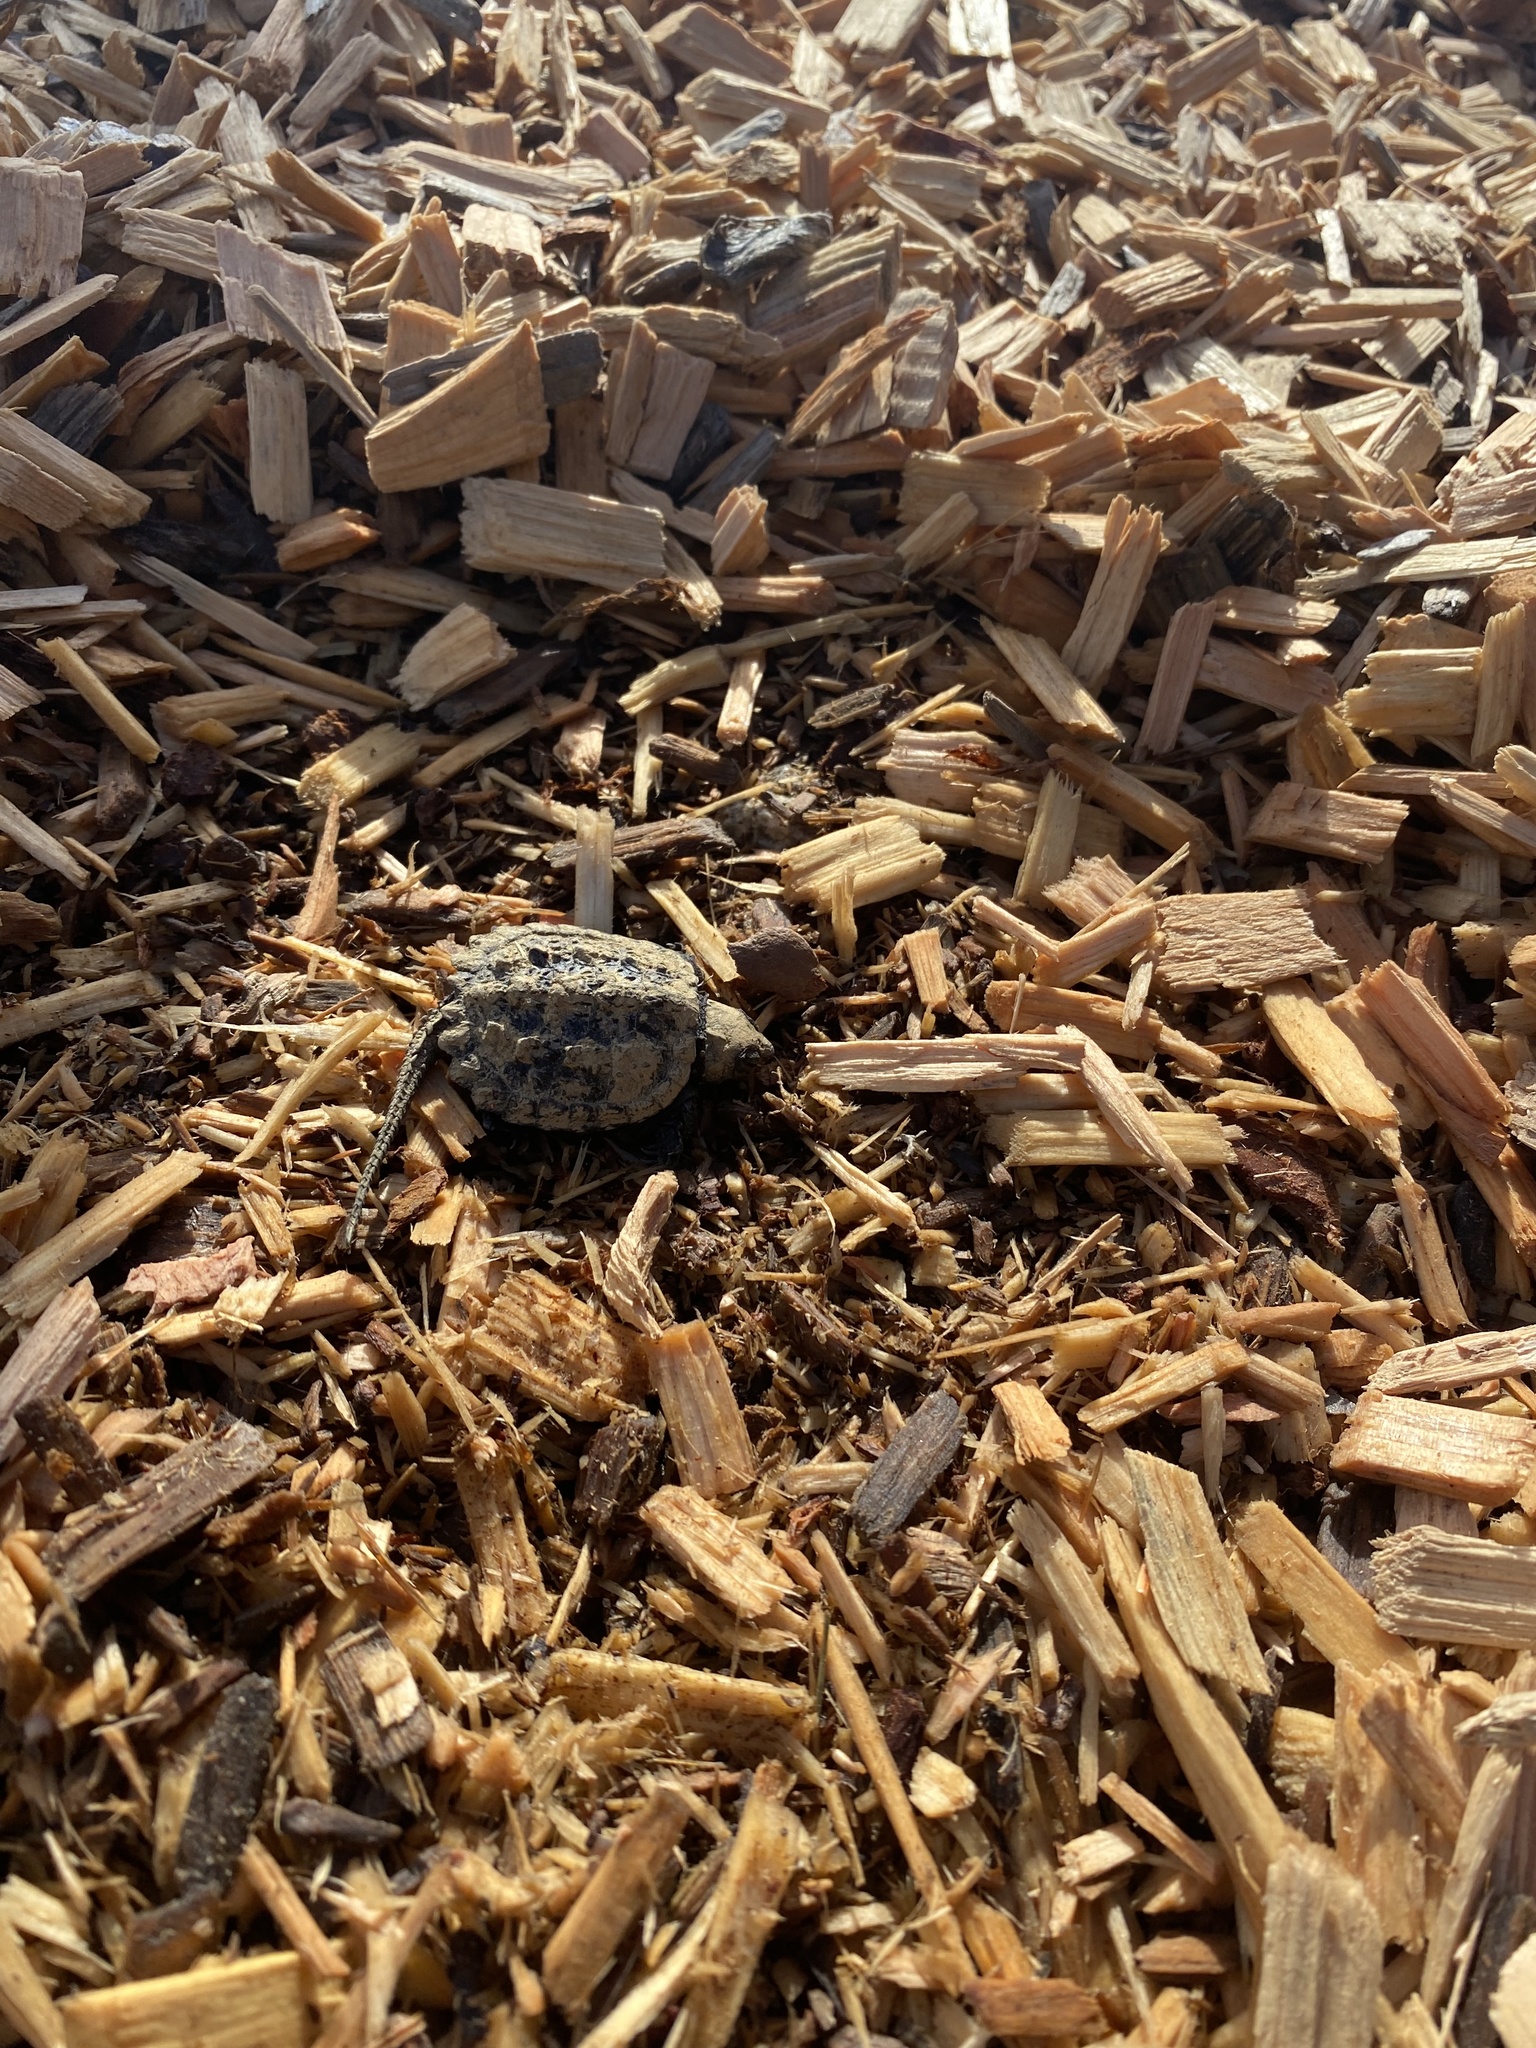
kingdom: Animalia
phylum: Chordata
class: Testudines
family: Chelydridae
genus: Chelydra
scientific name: Chelydra serpentina
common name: Common snapping turtle
